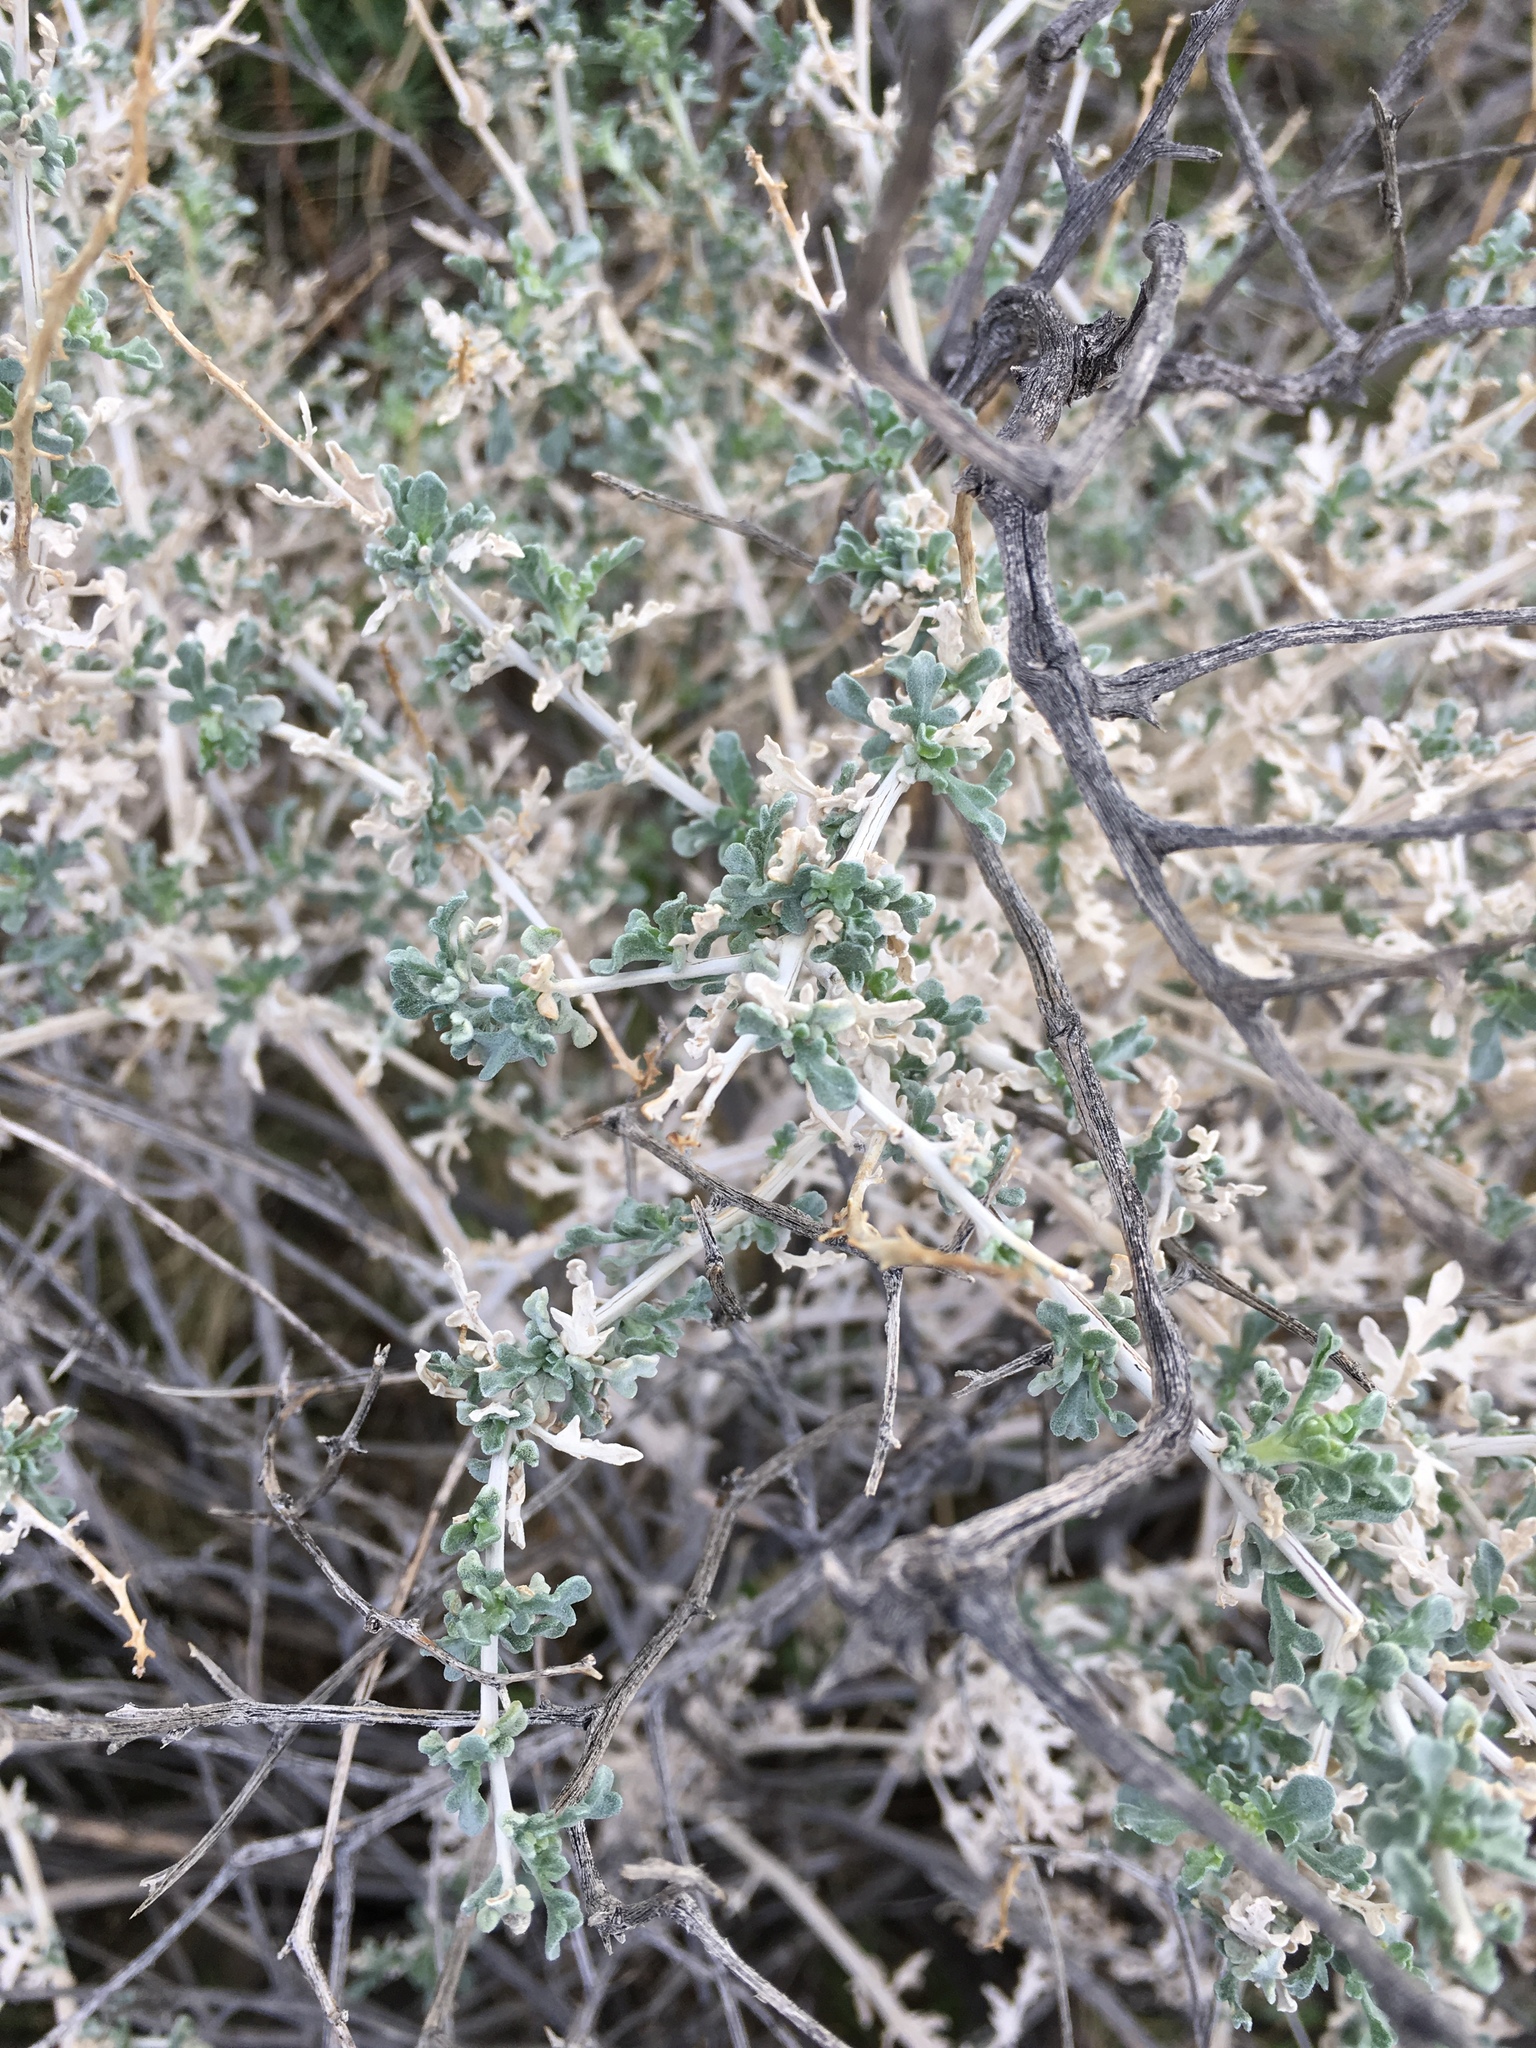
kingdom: Plantae
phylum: Tracheophyta
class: Magnoliopsida
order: Asterales
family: Asteraceae
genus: Ambrosia
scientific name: Ambrosia dumosa
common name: Bur-sage
